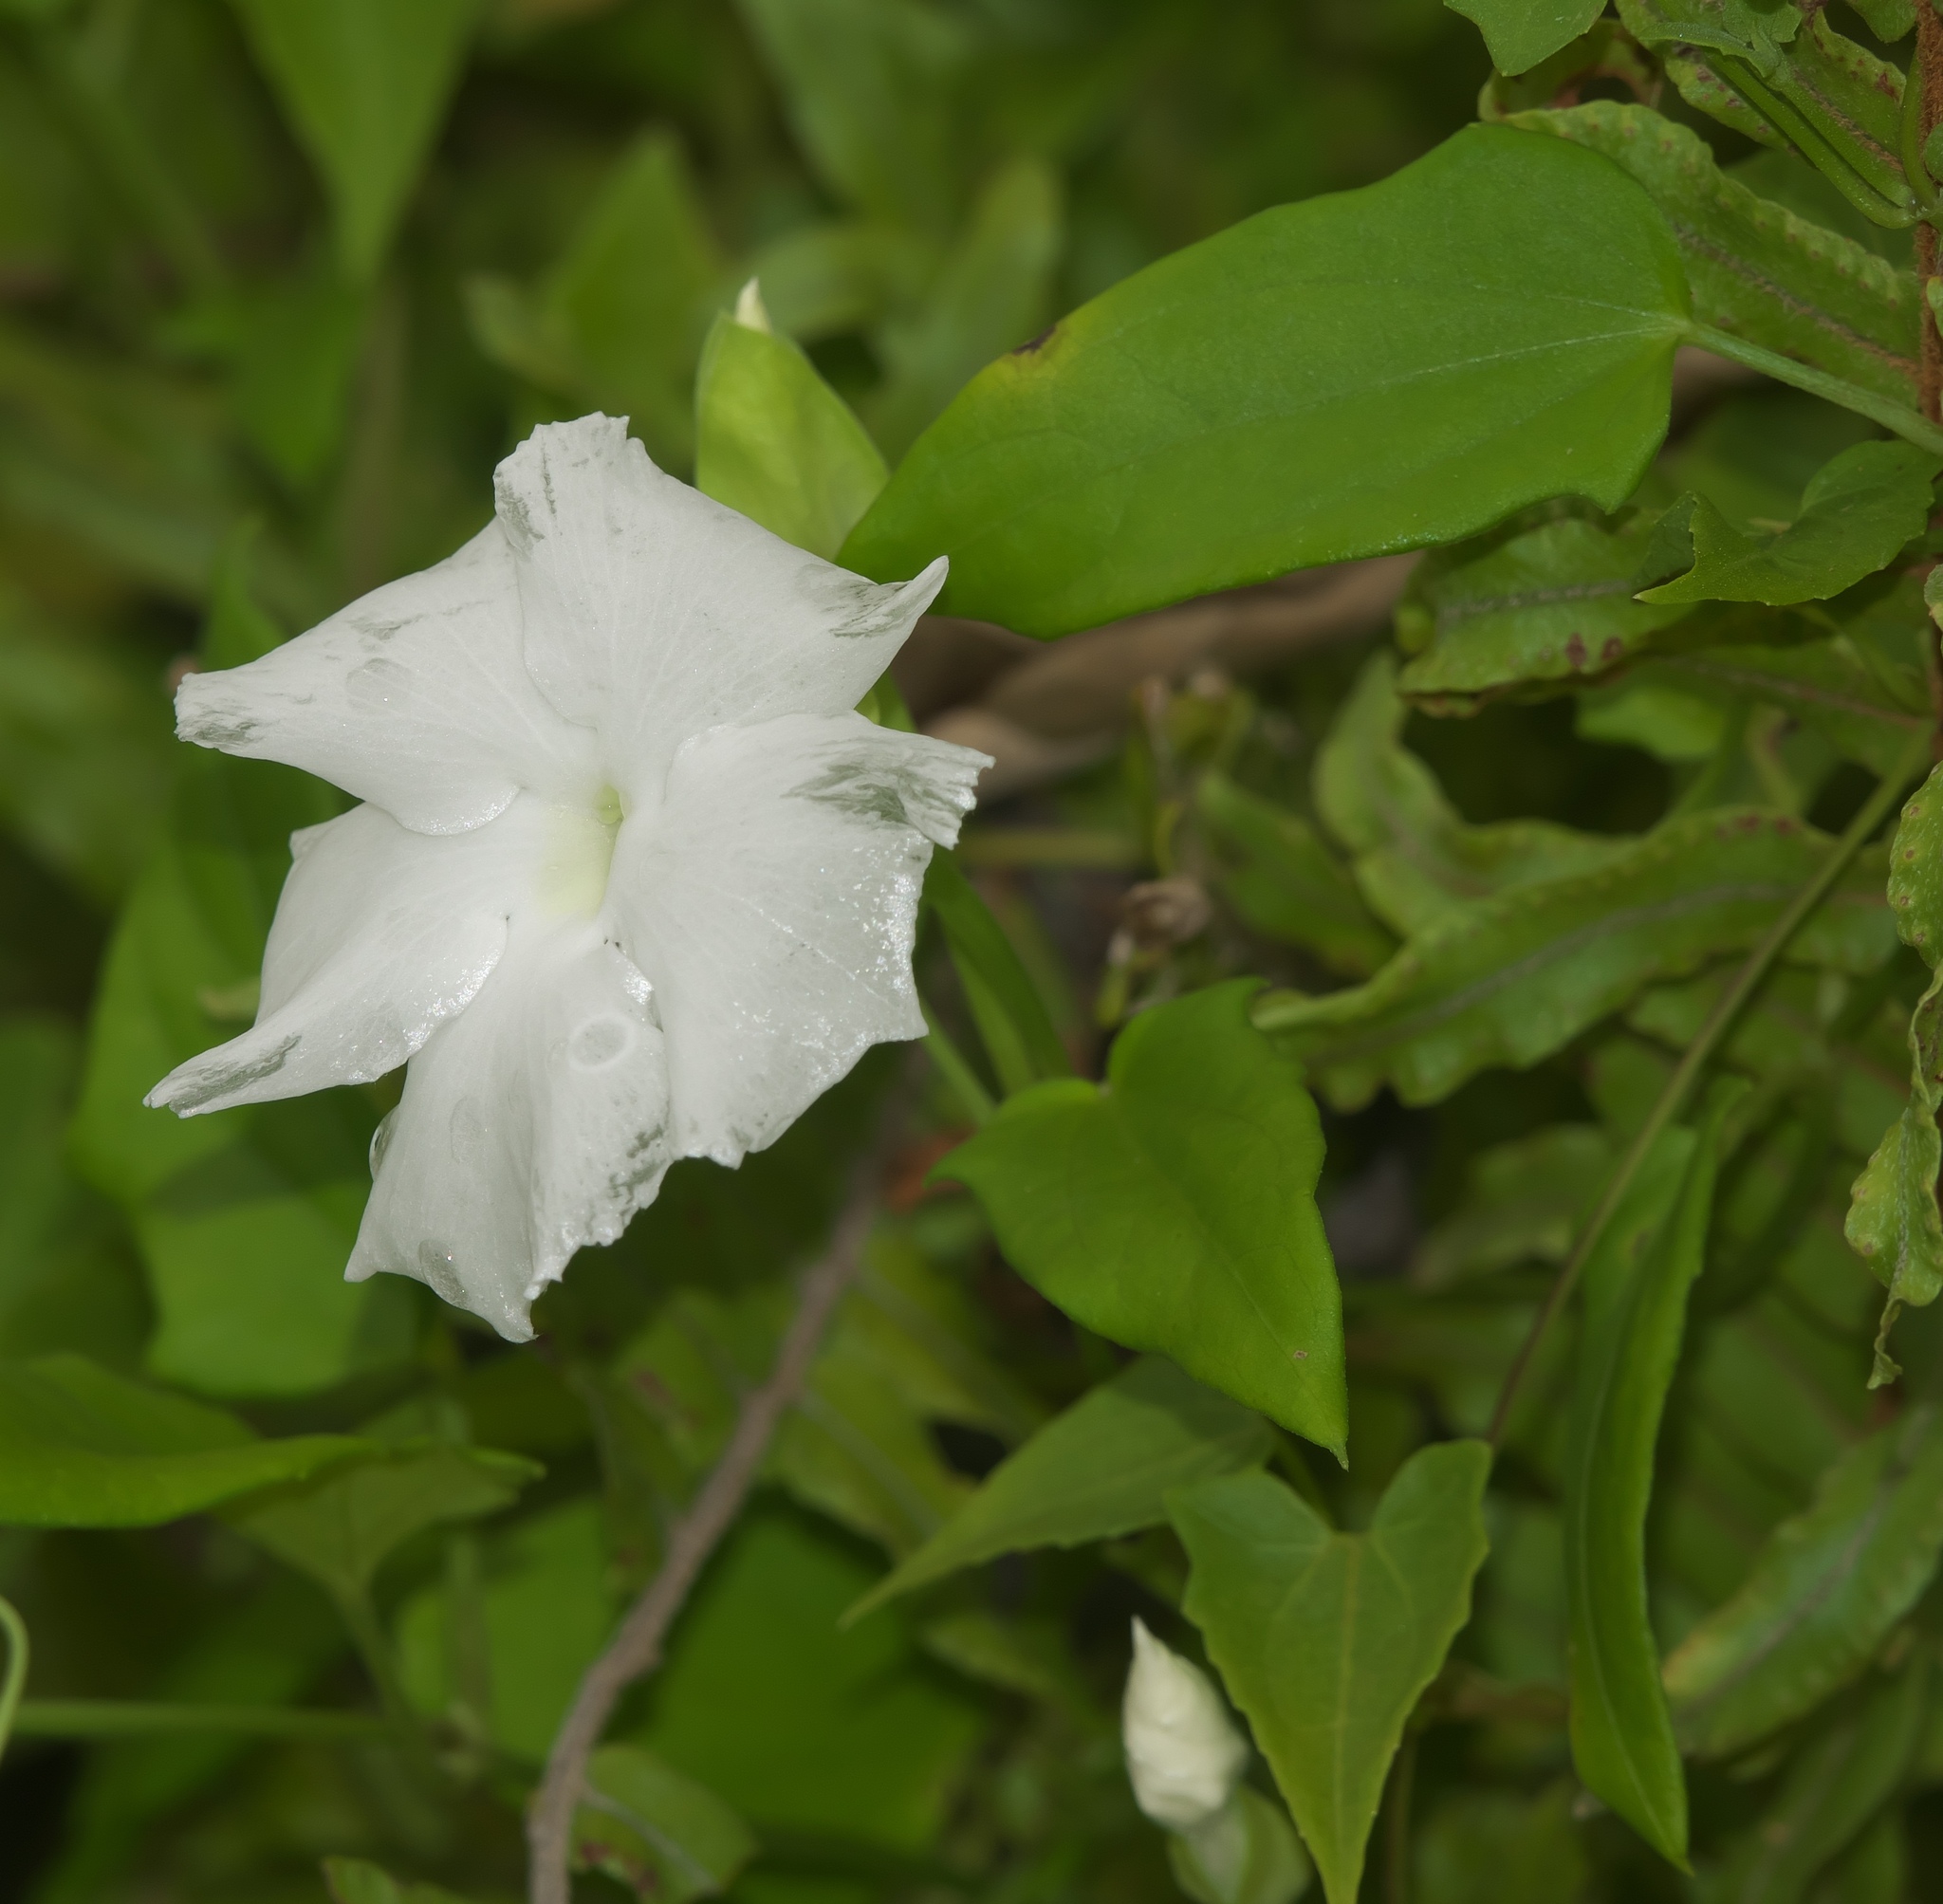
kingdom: Plantae
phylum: Tracheophyta
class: Magnoliopsida
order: Lamiales
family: Acanthaceae
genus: Thunbergia
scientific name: Thunbergia fragrans
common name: Whitelady
